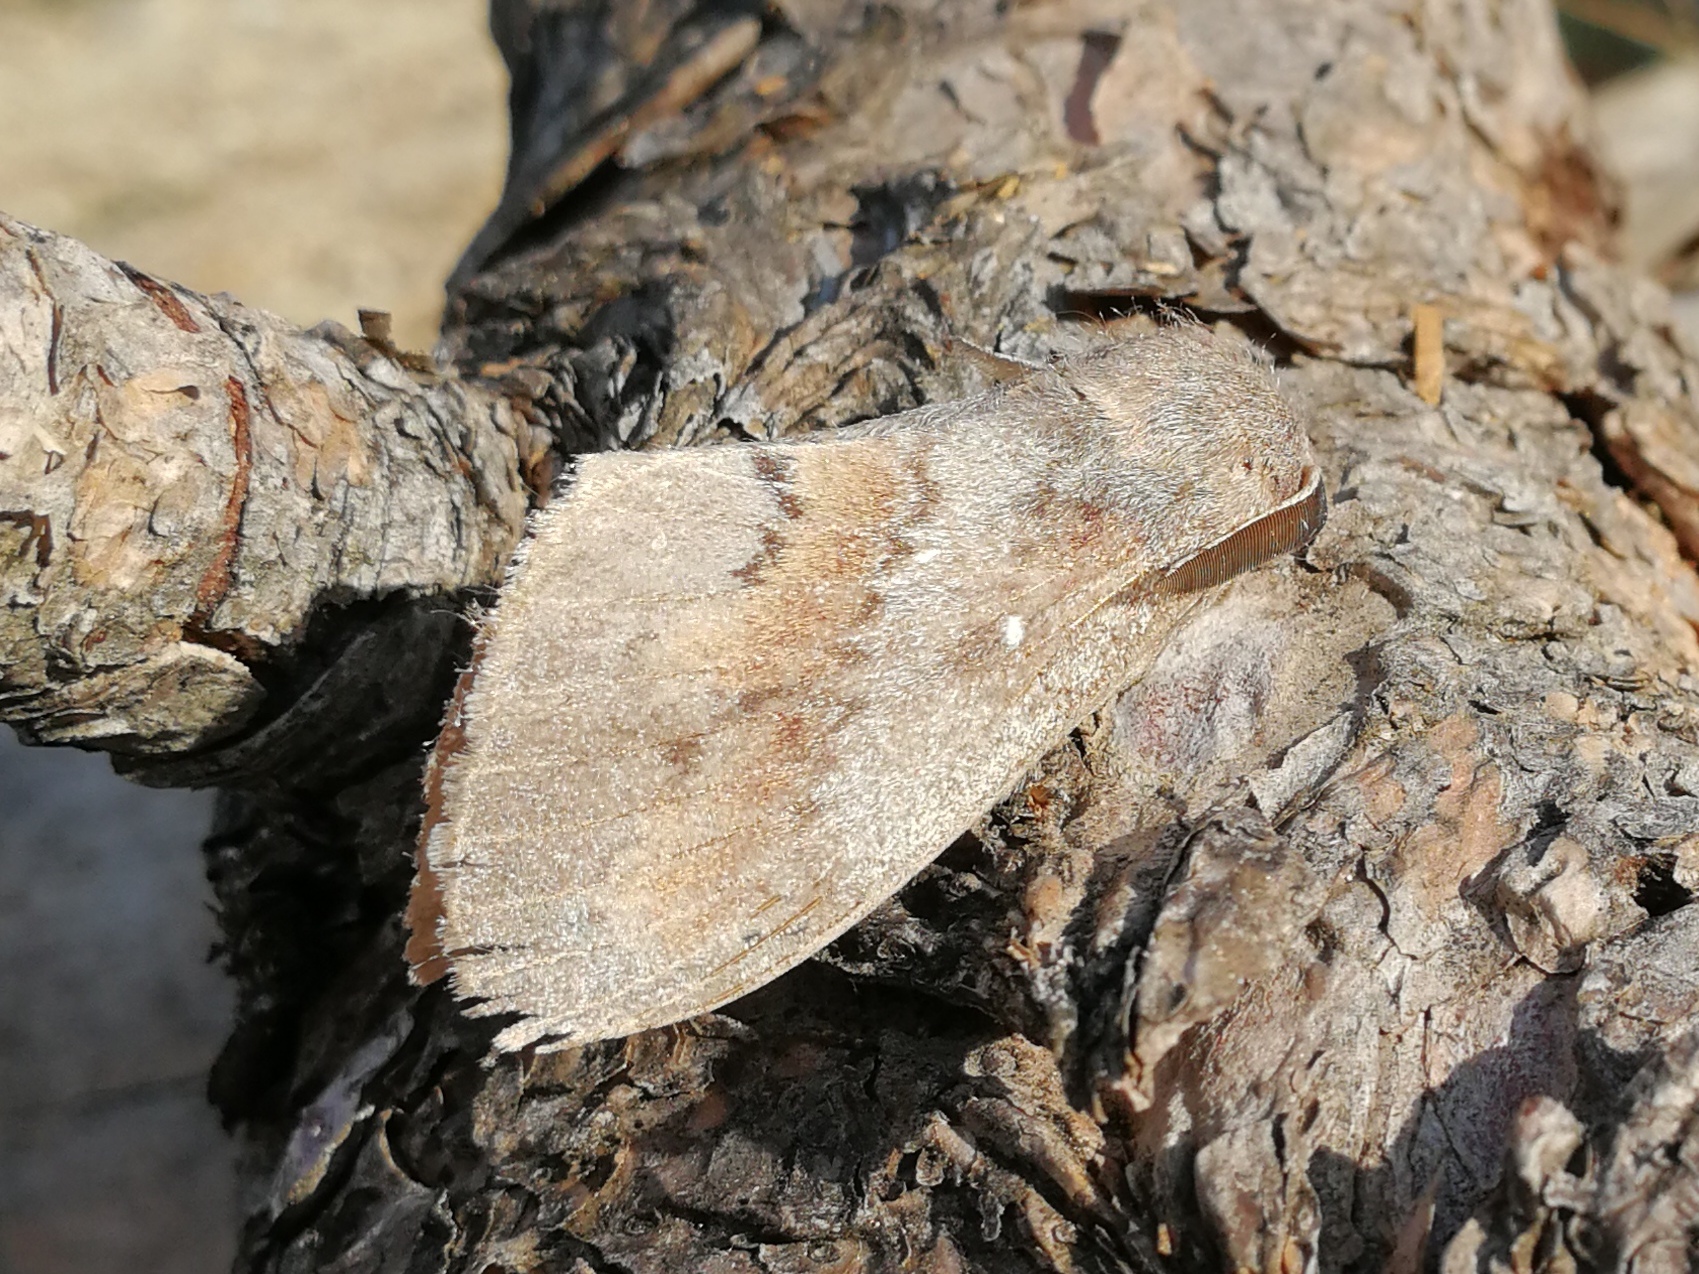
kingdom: Animalia
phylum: Arthropoda
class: Insecta
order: Lepidoptera
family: Lasiocampidae
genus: Dendrolimus
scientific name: Dendrolimus pini
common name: Pine-tree lappet
